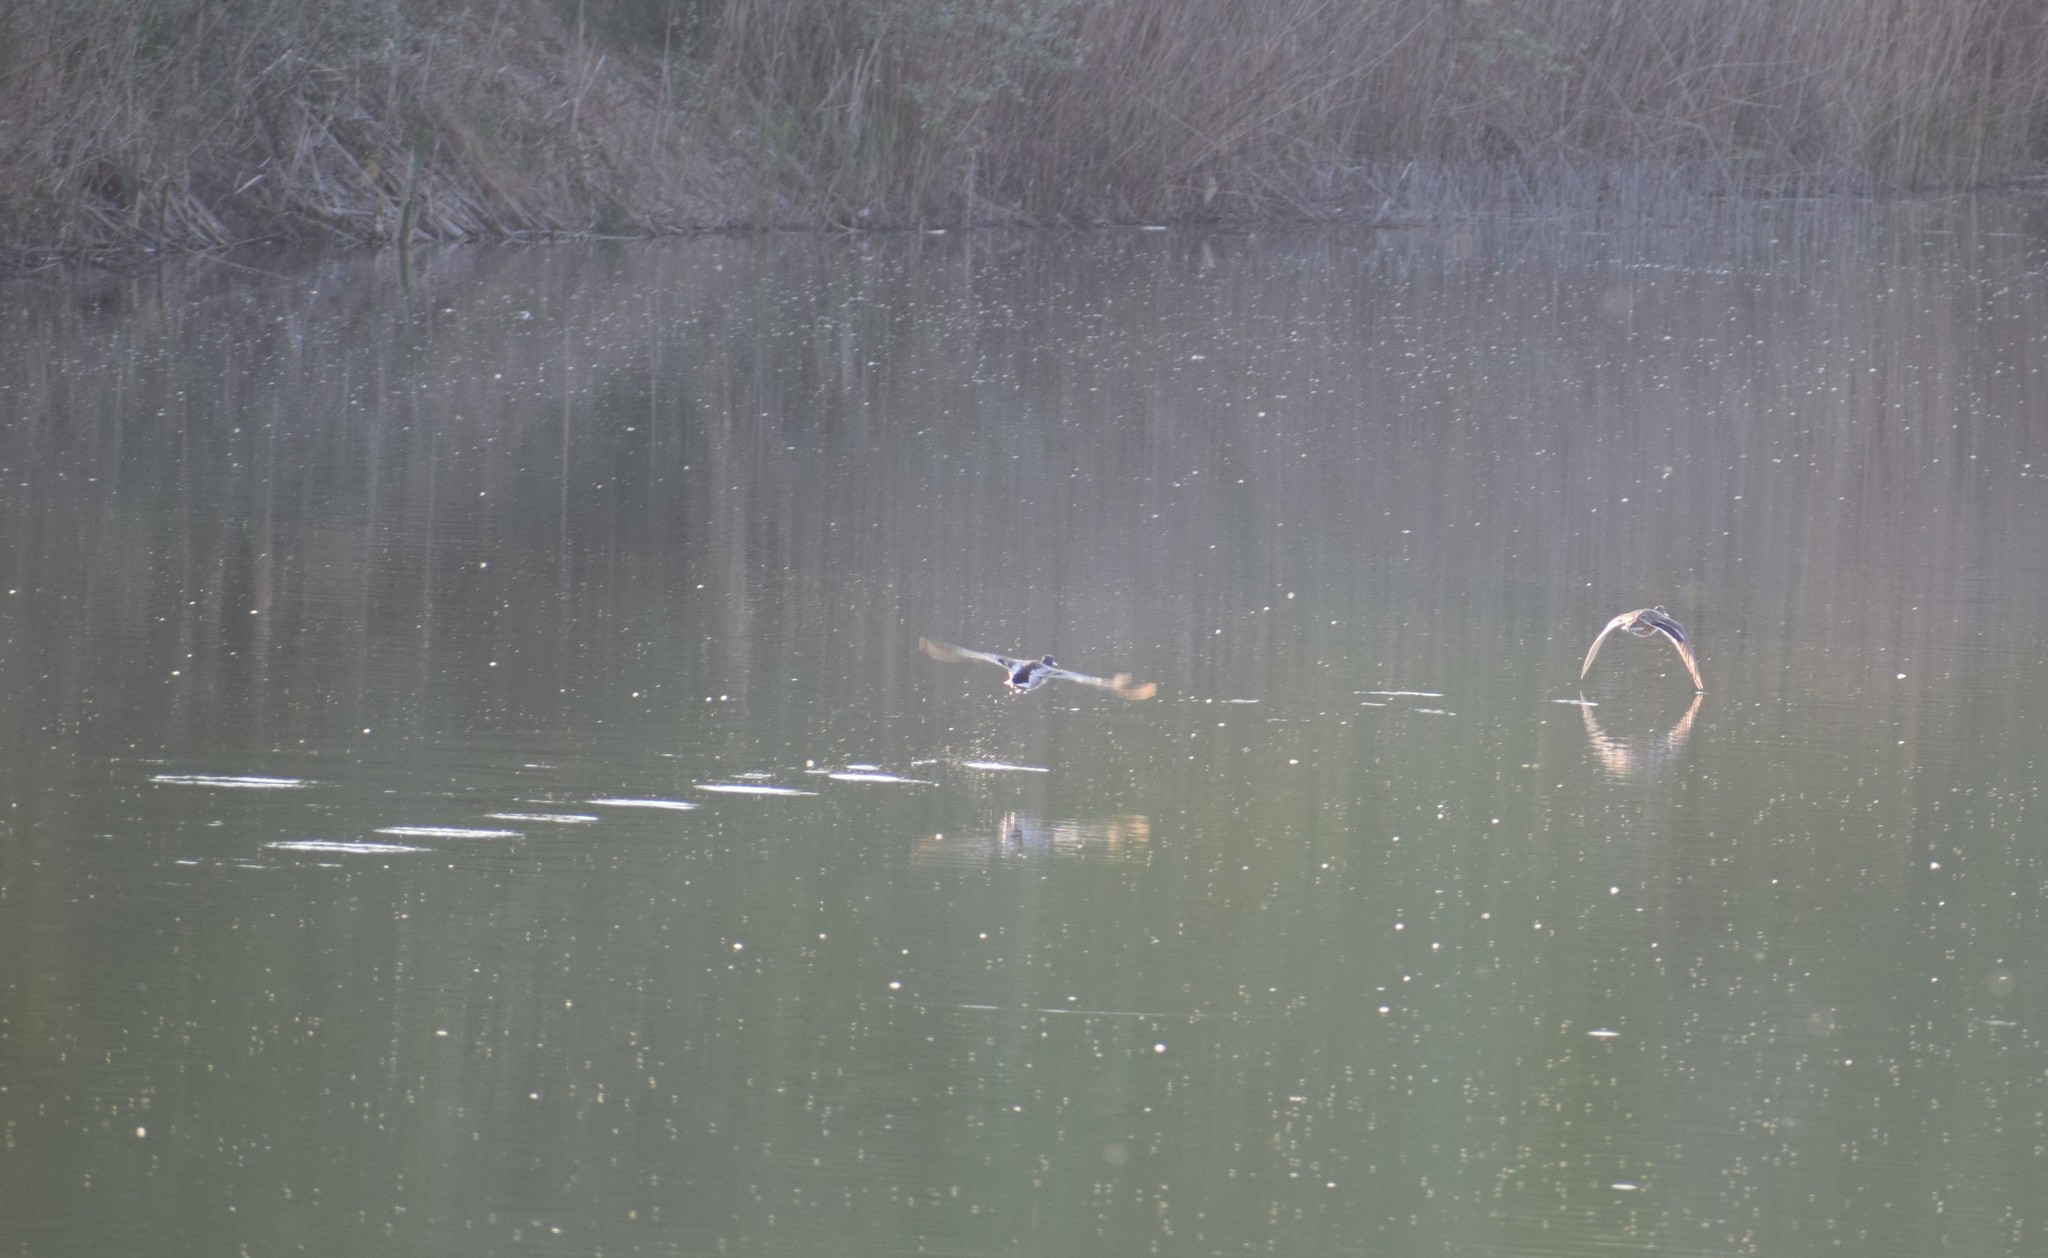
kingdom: Animalia
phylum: Chordata
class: Aves
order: Anseriformes
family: Anatidae
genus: Anas
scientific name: Anas platyrhynchos
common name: Mallard
